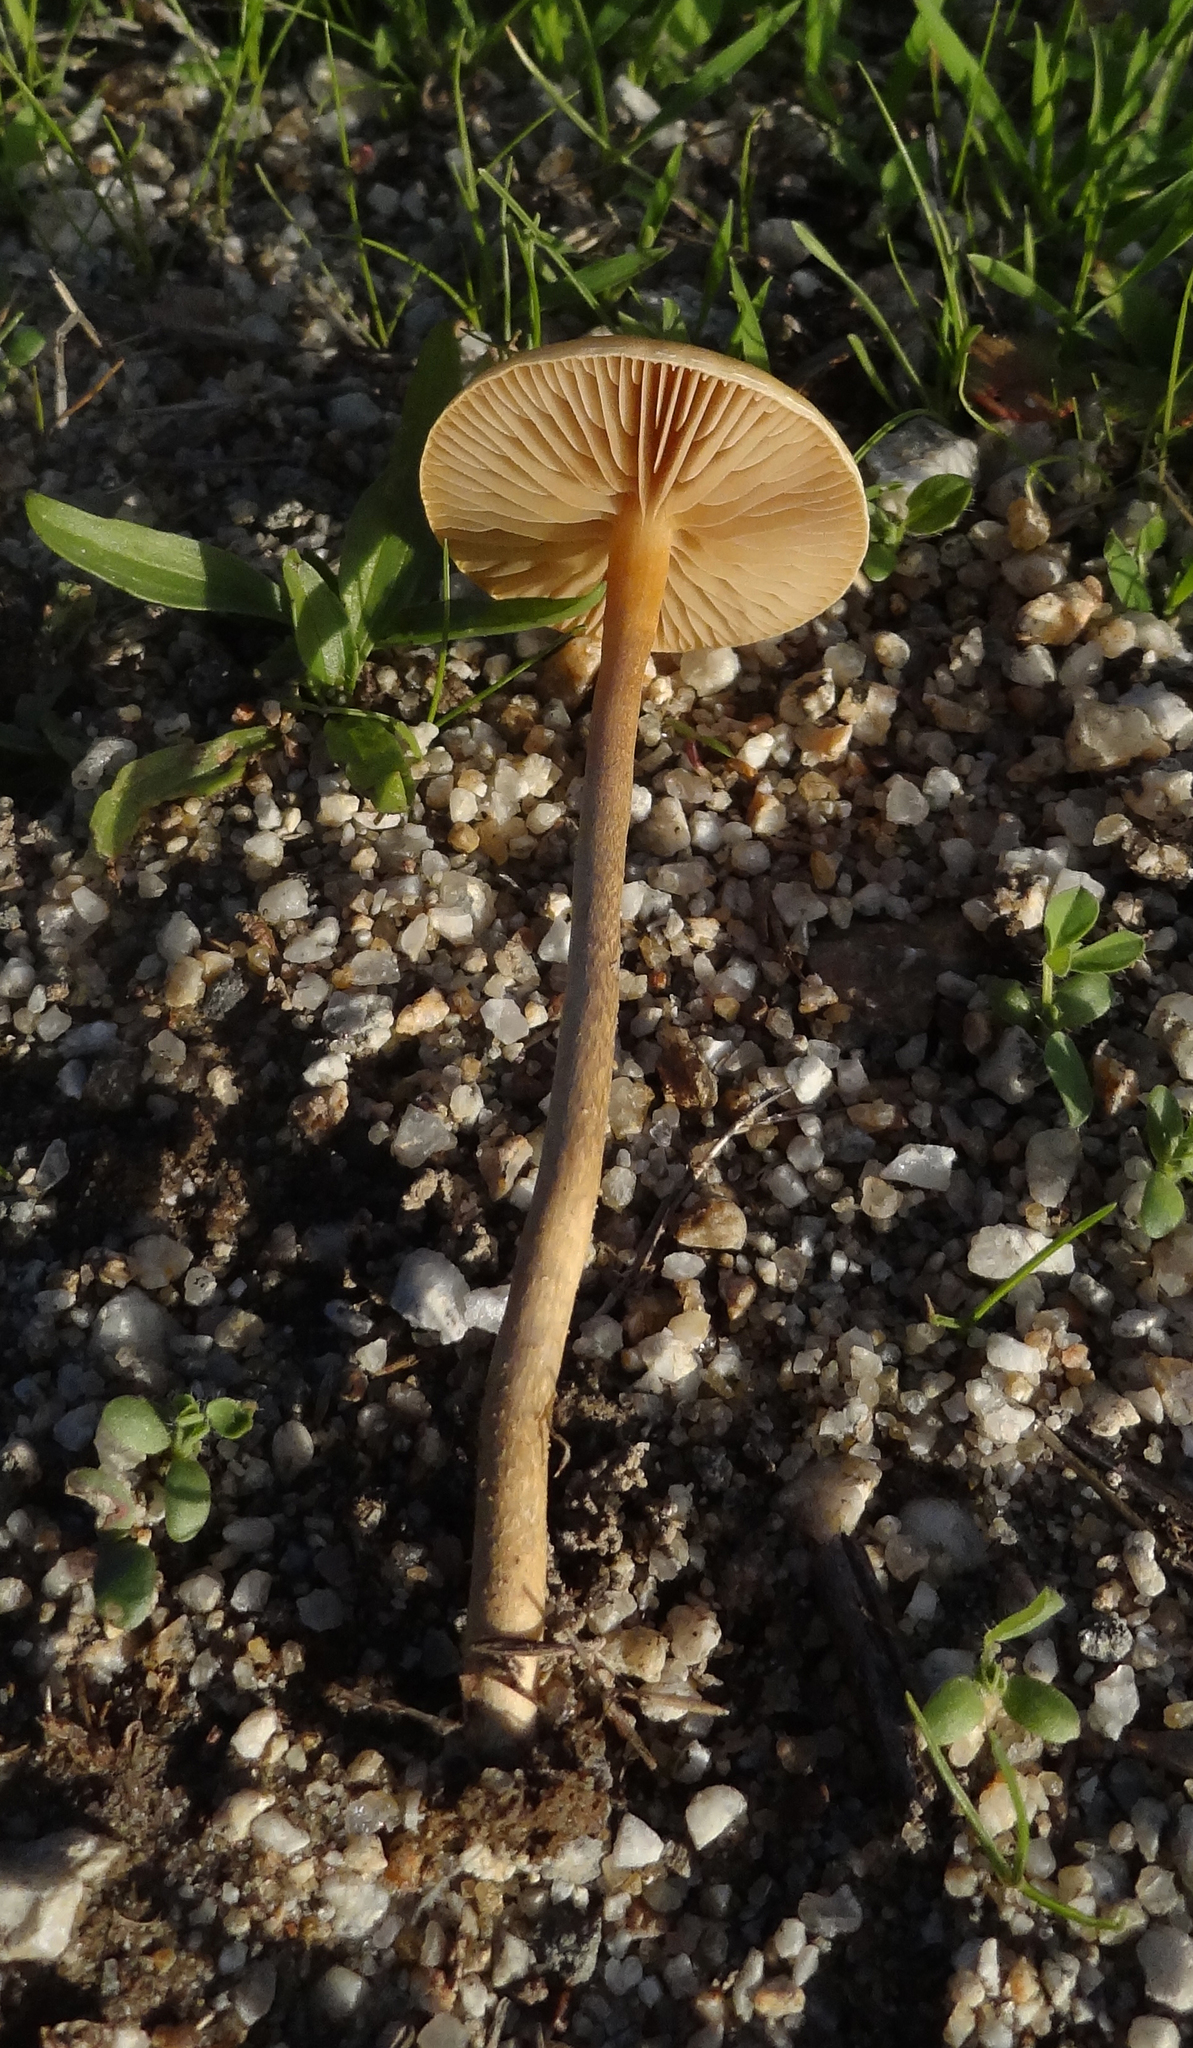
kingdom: Fungi
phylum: Basidiomycota
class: Agaricomycetes
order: Agaricales
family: Strophariaceae
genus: Agrocybe
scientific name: Agrocybe pediades
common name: Common fieldcap
